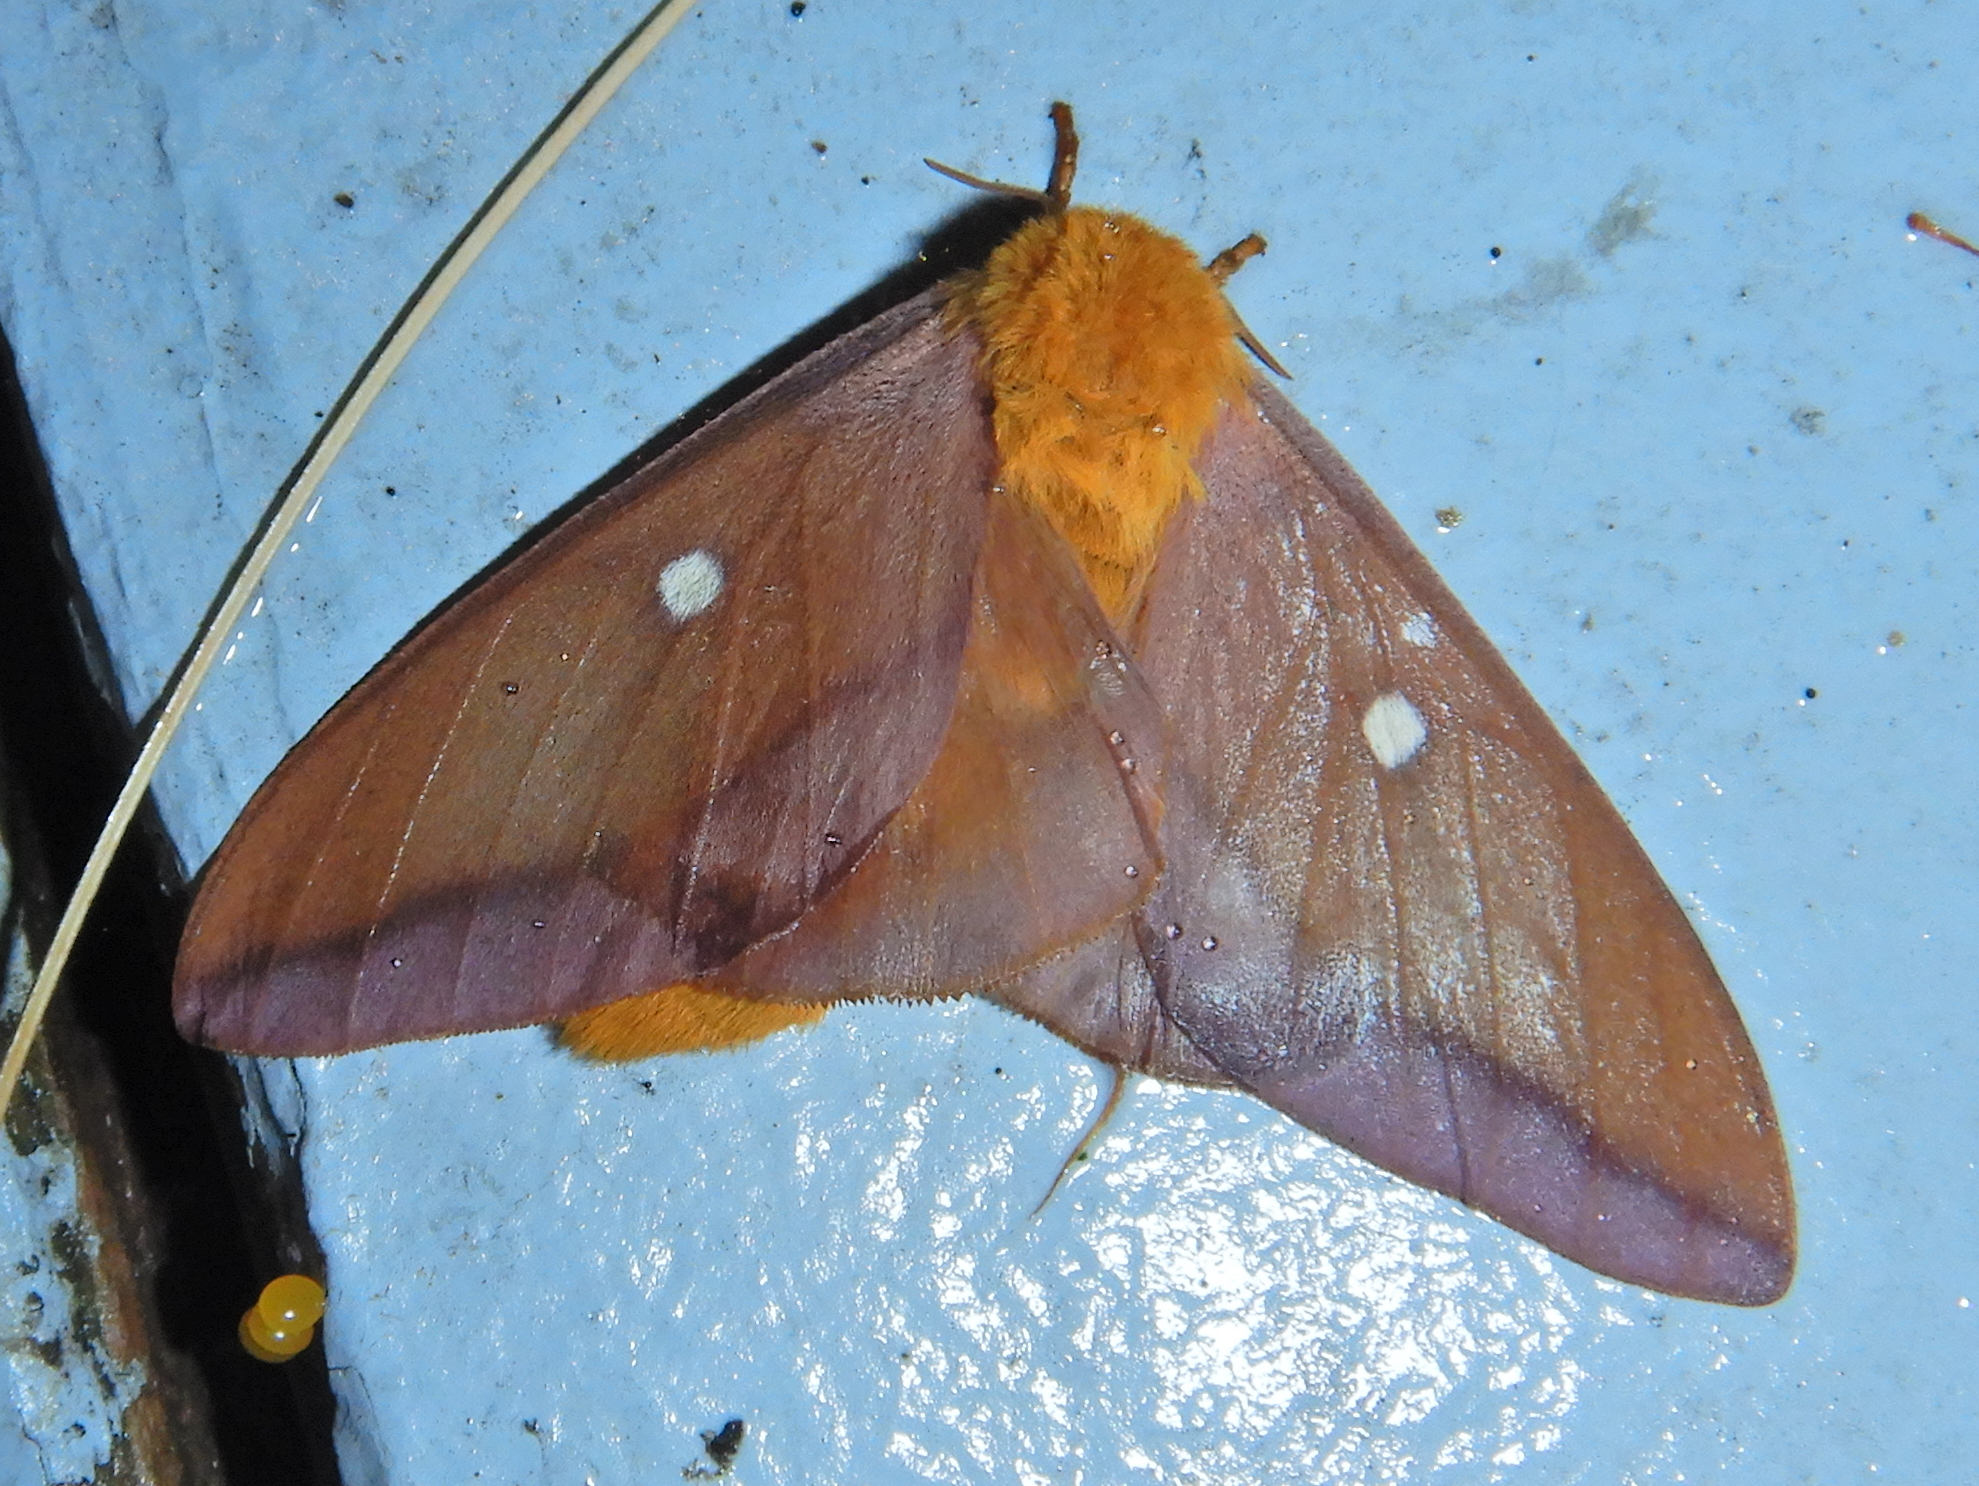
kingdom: Animalia
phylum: Arthropoda
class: Insecta
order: Lepidoptera
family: Saturniidae
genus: Anisota
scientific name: Anisota virginiensis
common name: Pink striped oakworm moth
